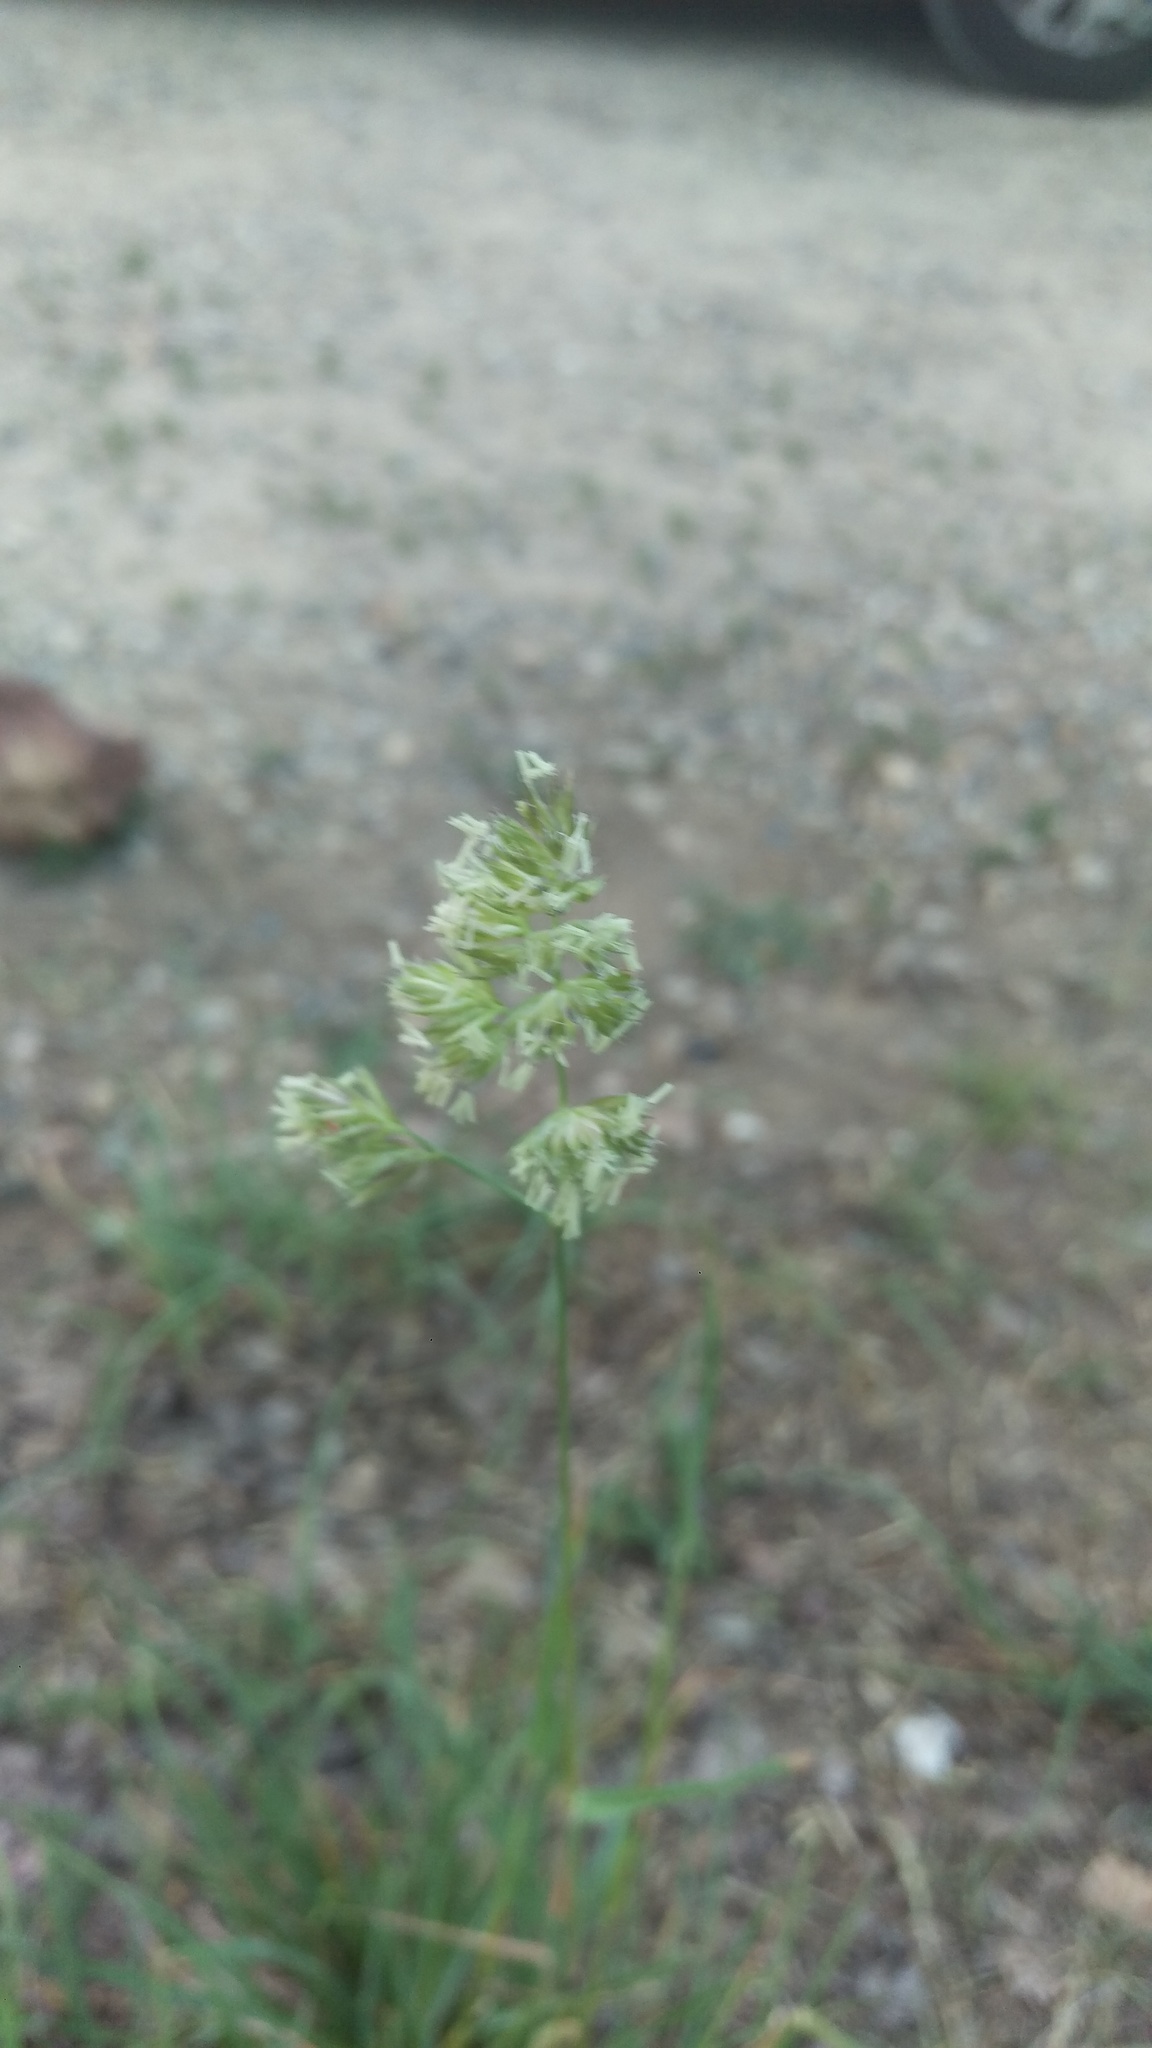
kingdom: Plantae
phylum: Tracheophyta
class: Liliopsida
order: Poales
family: Poaceae
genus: Dactylis
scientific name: Dactylis glomerata
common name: Orchardgrass
